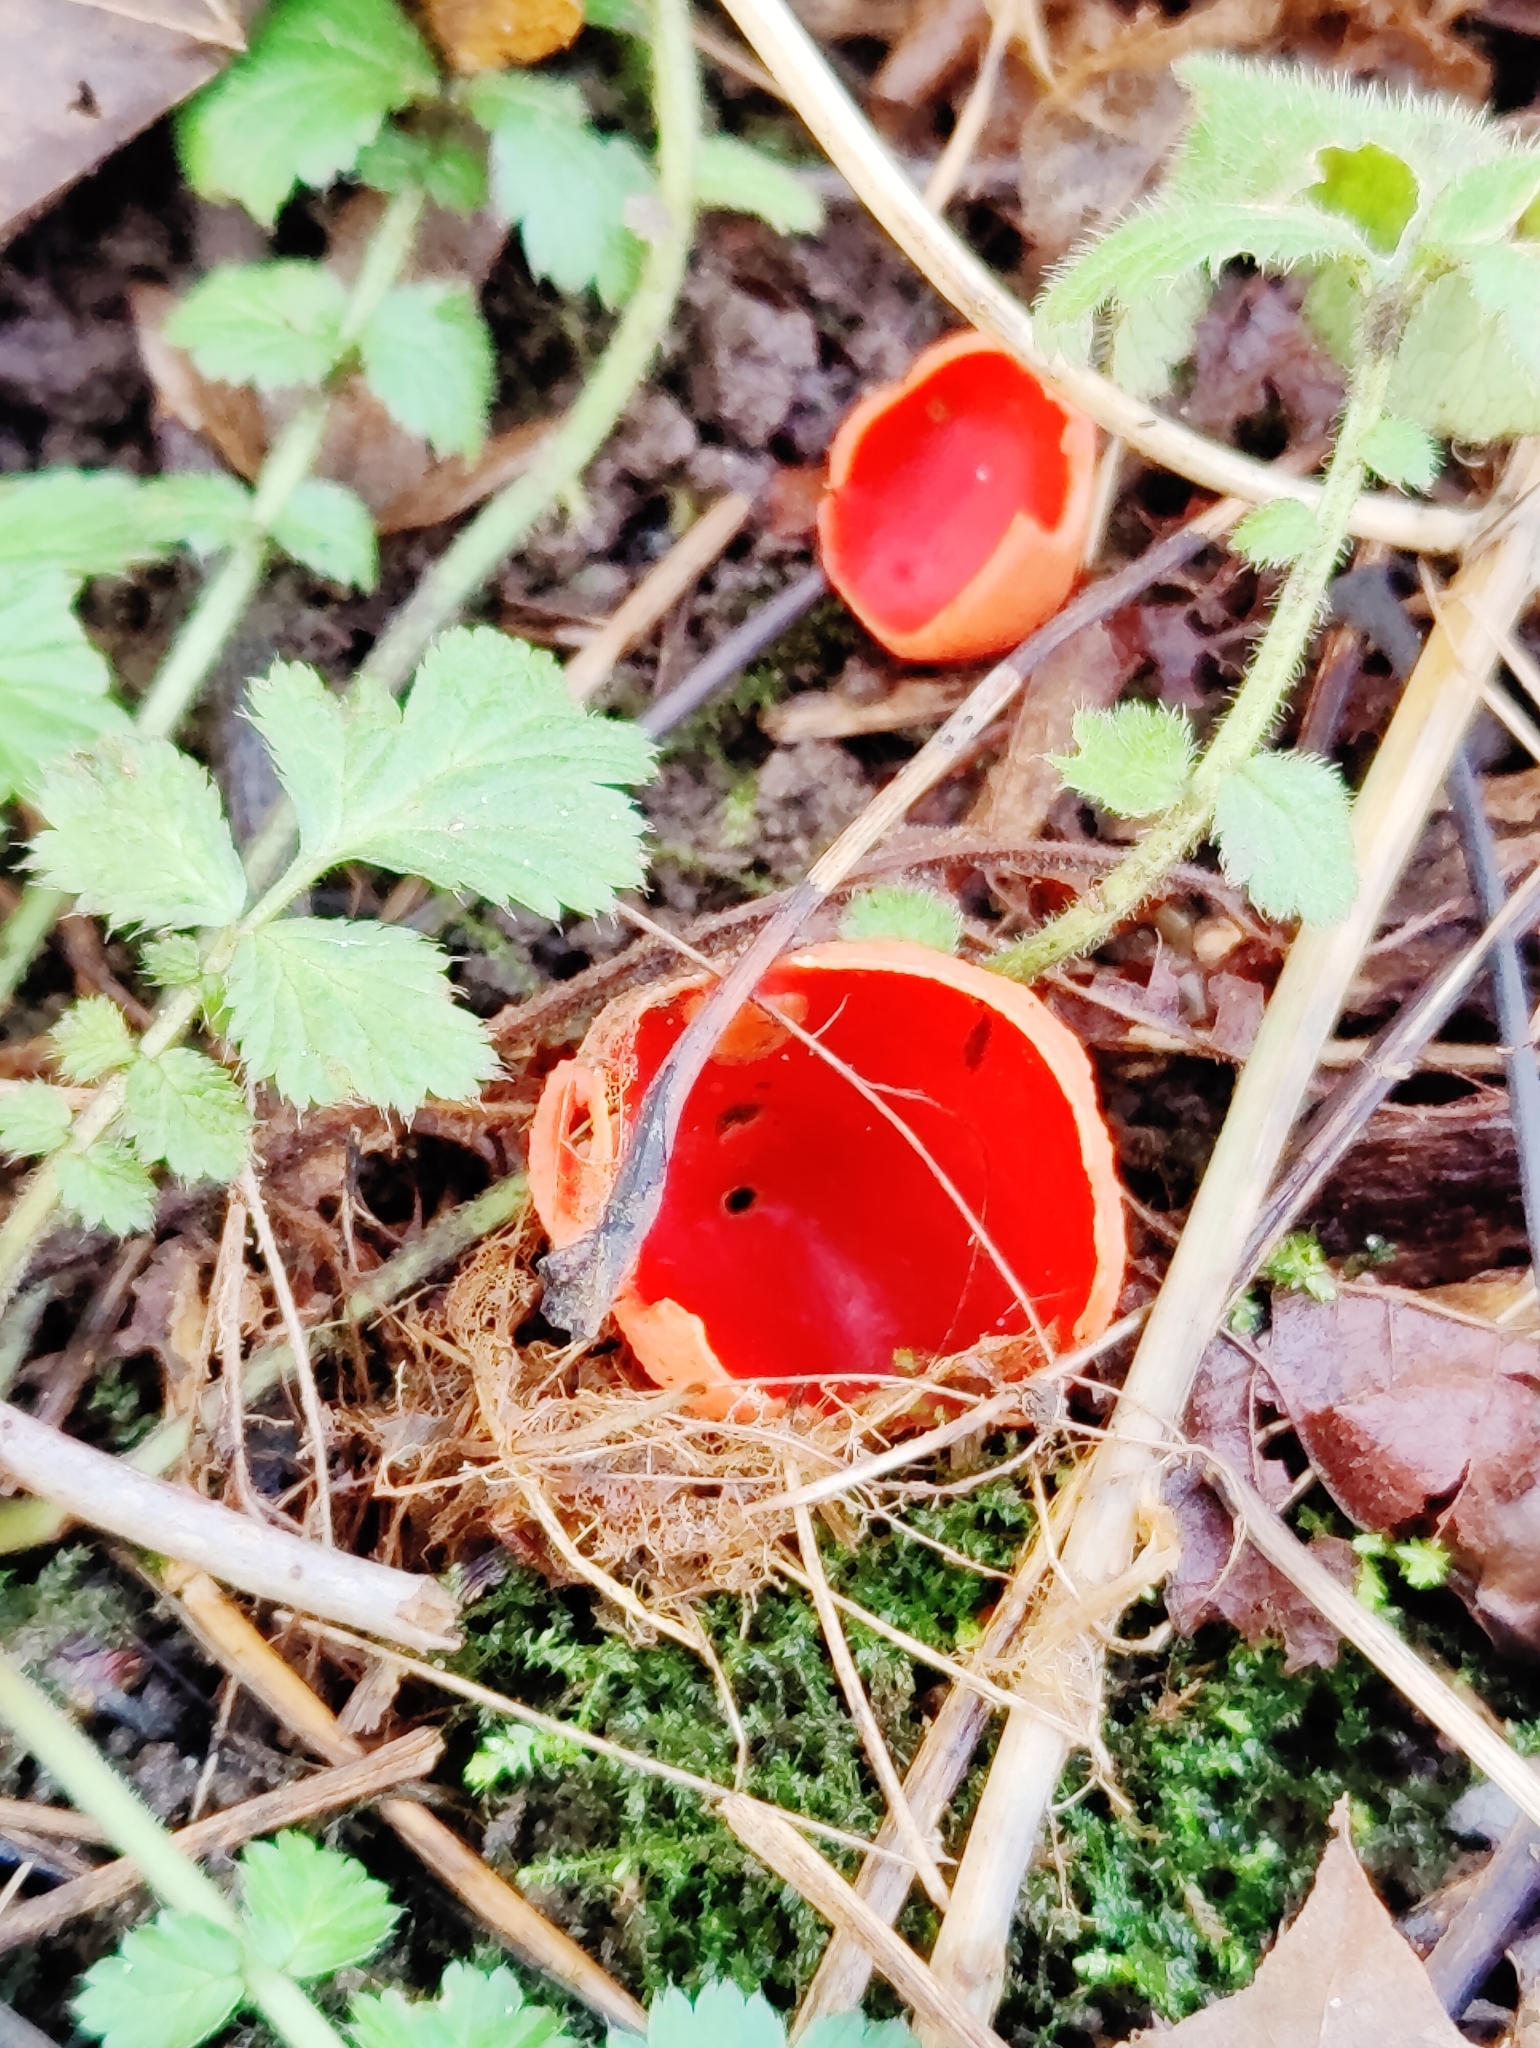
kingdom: Fungi
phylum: Ascomycota
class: Pezizomycetes
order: Pezizales
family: Sarcoscyphaceae
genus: Sarcoscypha
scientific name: Sarcoscypha
